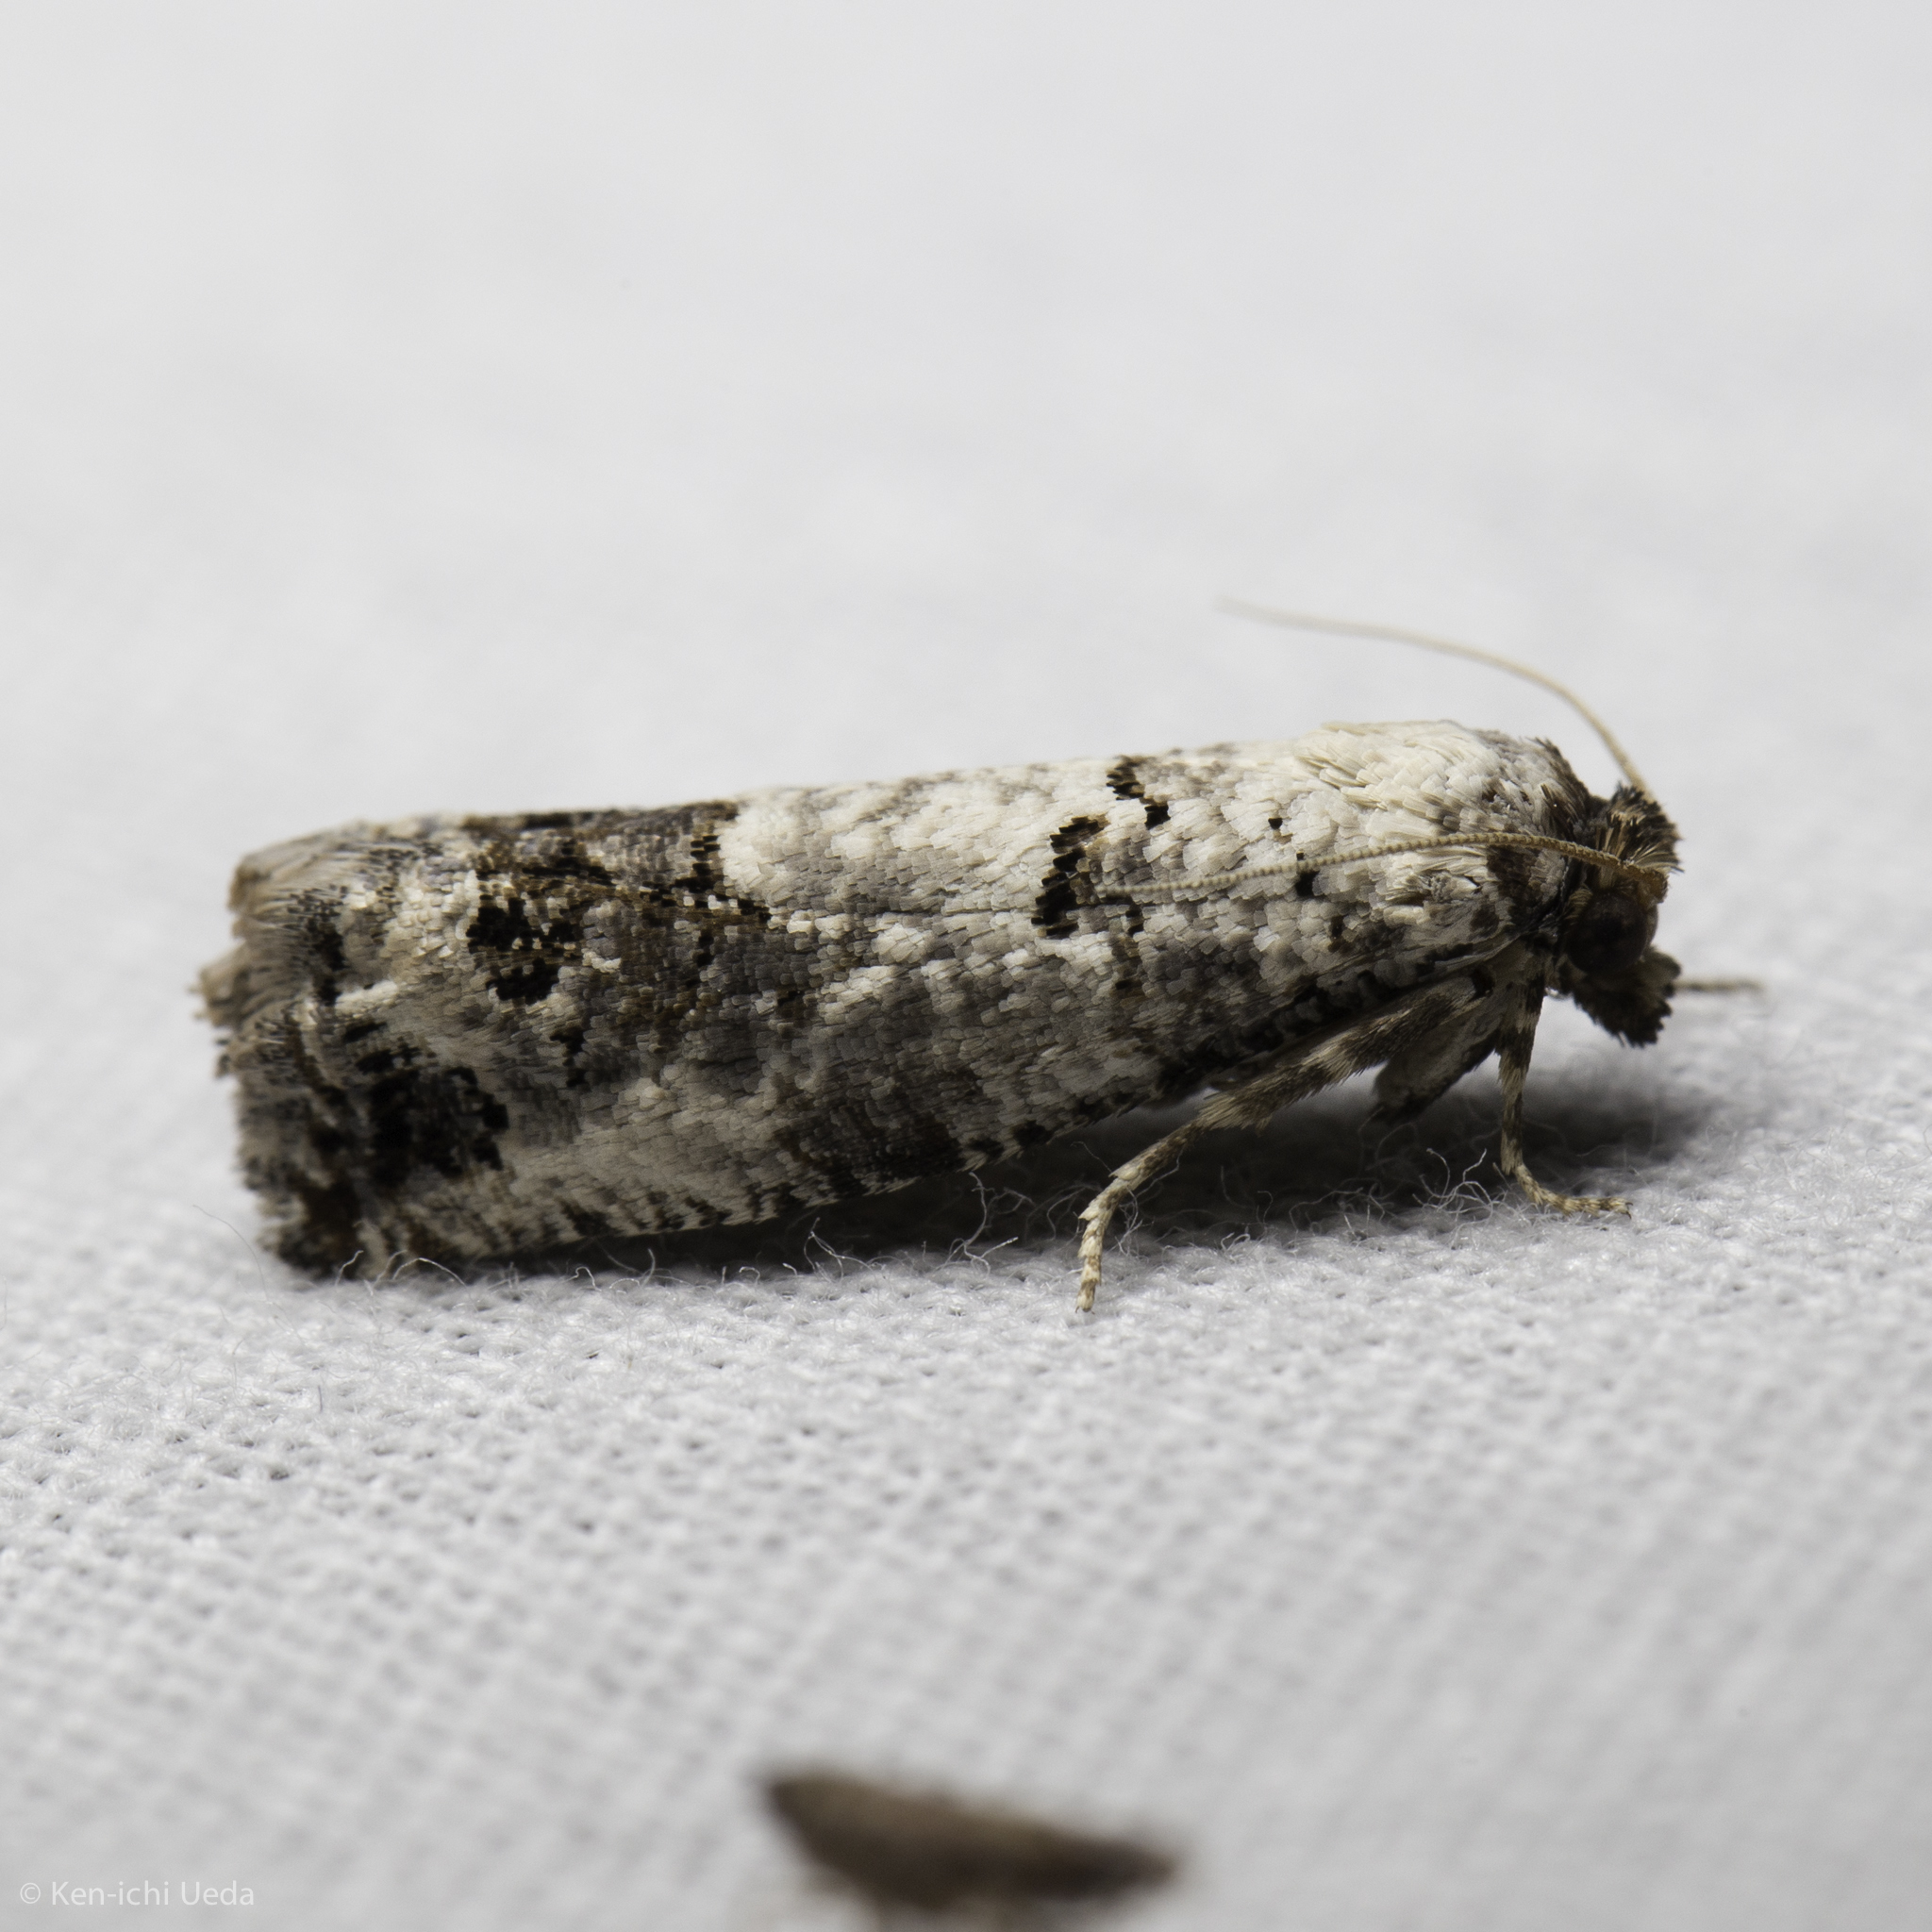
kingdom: Animalia
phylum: Arthropoda
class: Insecta
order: Lepidoptera
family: Tortricidae
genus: Pelochrista
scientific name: Pelochrista eburata
